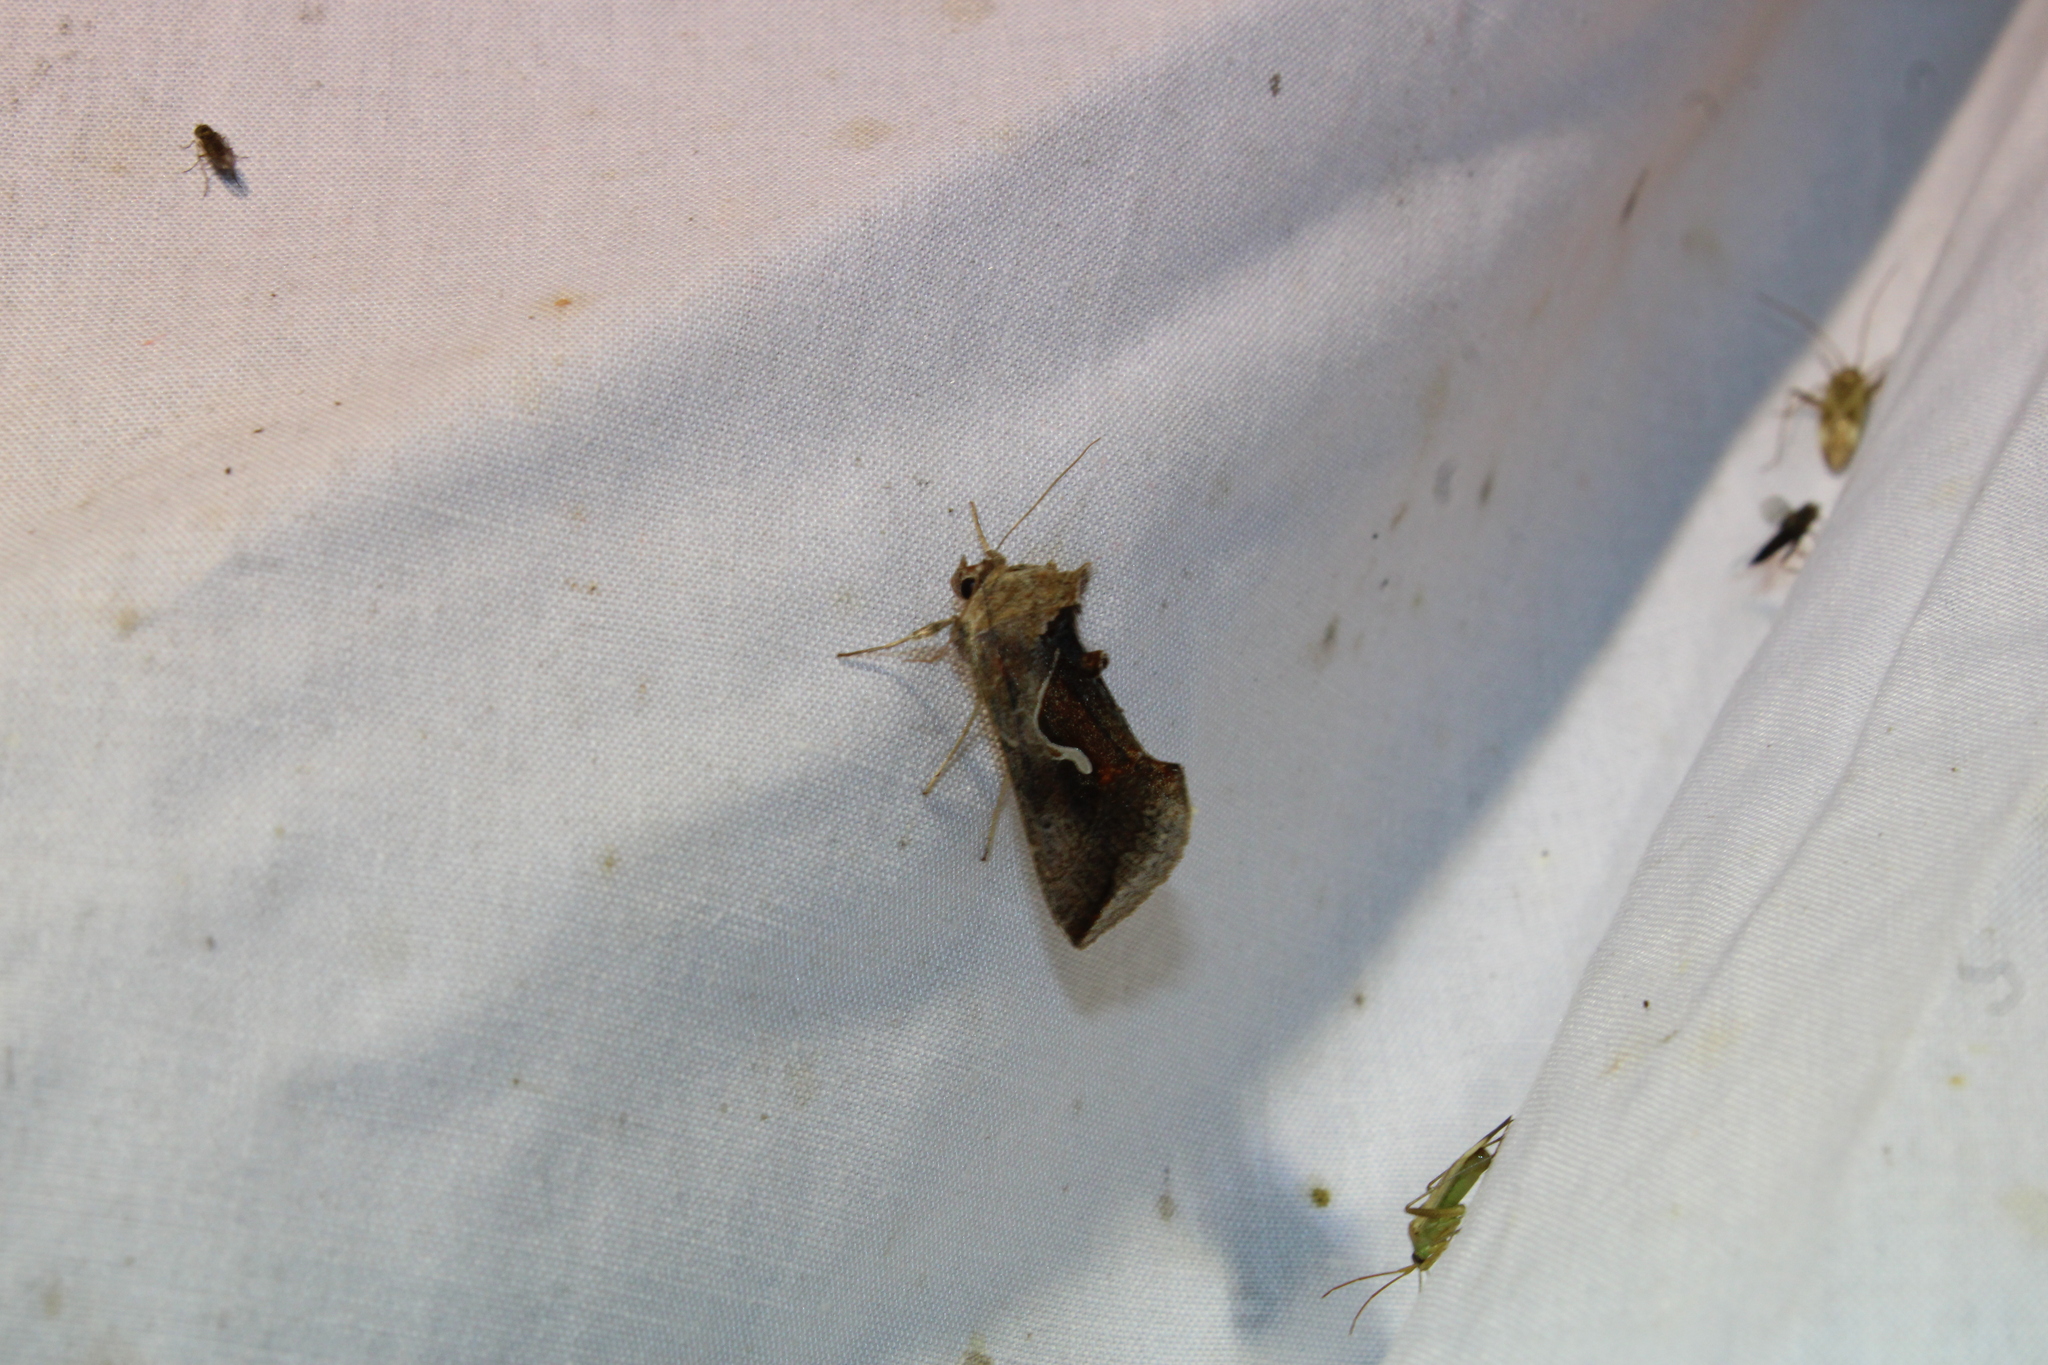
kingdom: Animalia
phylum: Arthropoda
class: Insecta
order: Lepidoptera
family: Noctuidae
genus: Anagrapha
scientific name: Anagrapha falcifera
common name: Celery looper
